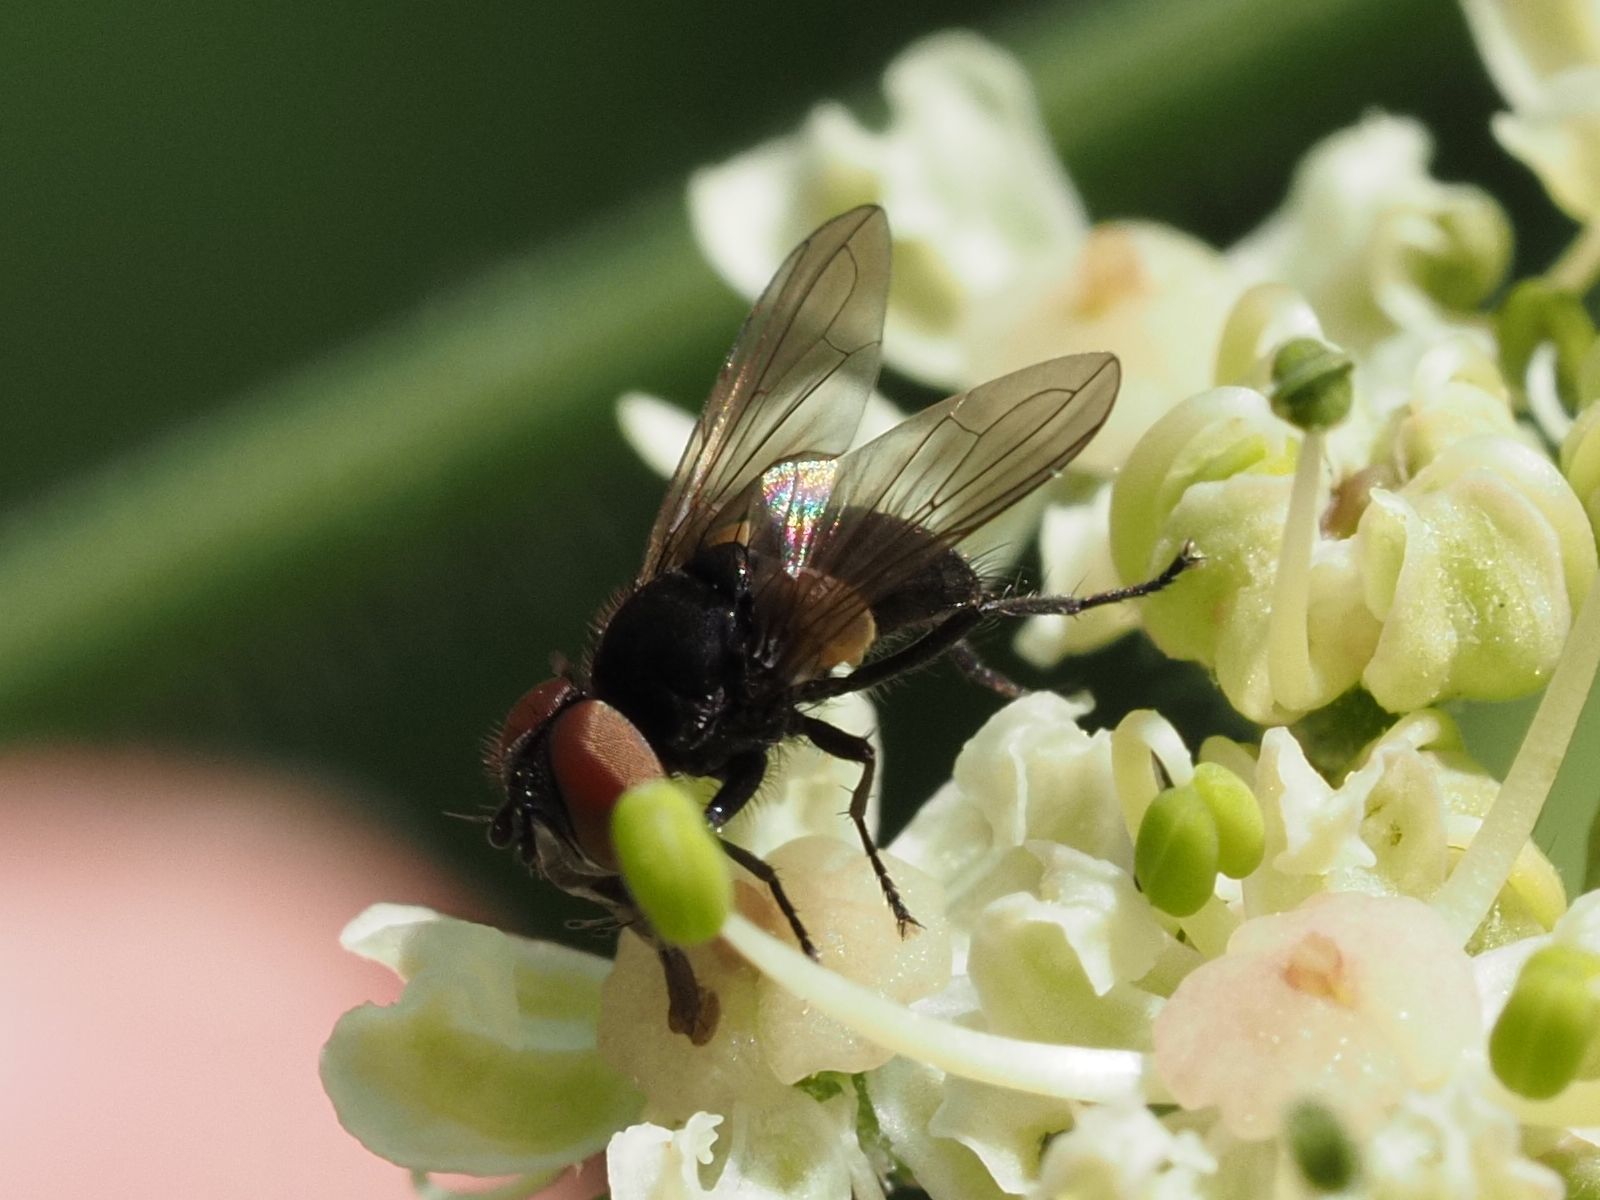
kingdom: Animalia
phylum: Arthropoda
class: Insecta
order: Diptera
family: Tachinidae
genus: Phasia
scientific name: Phasia barbifrons
